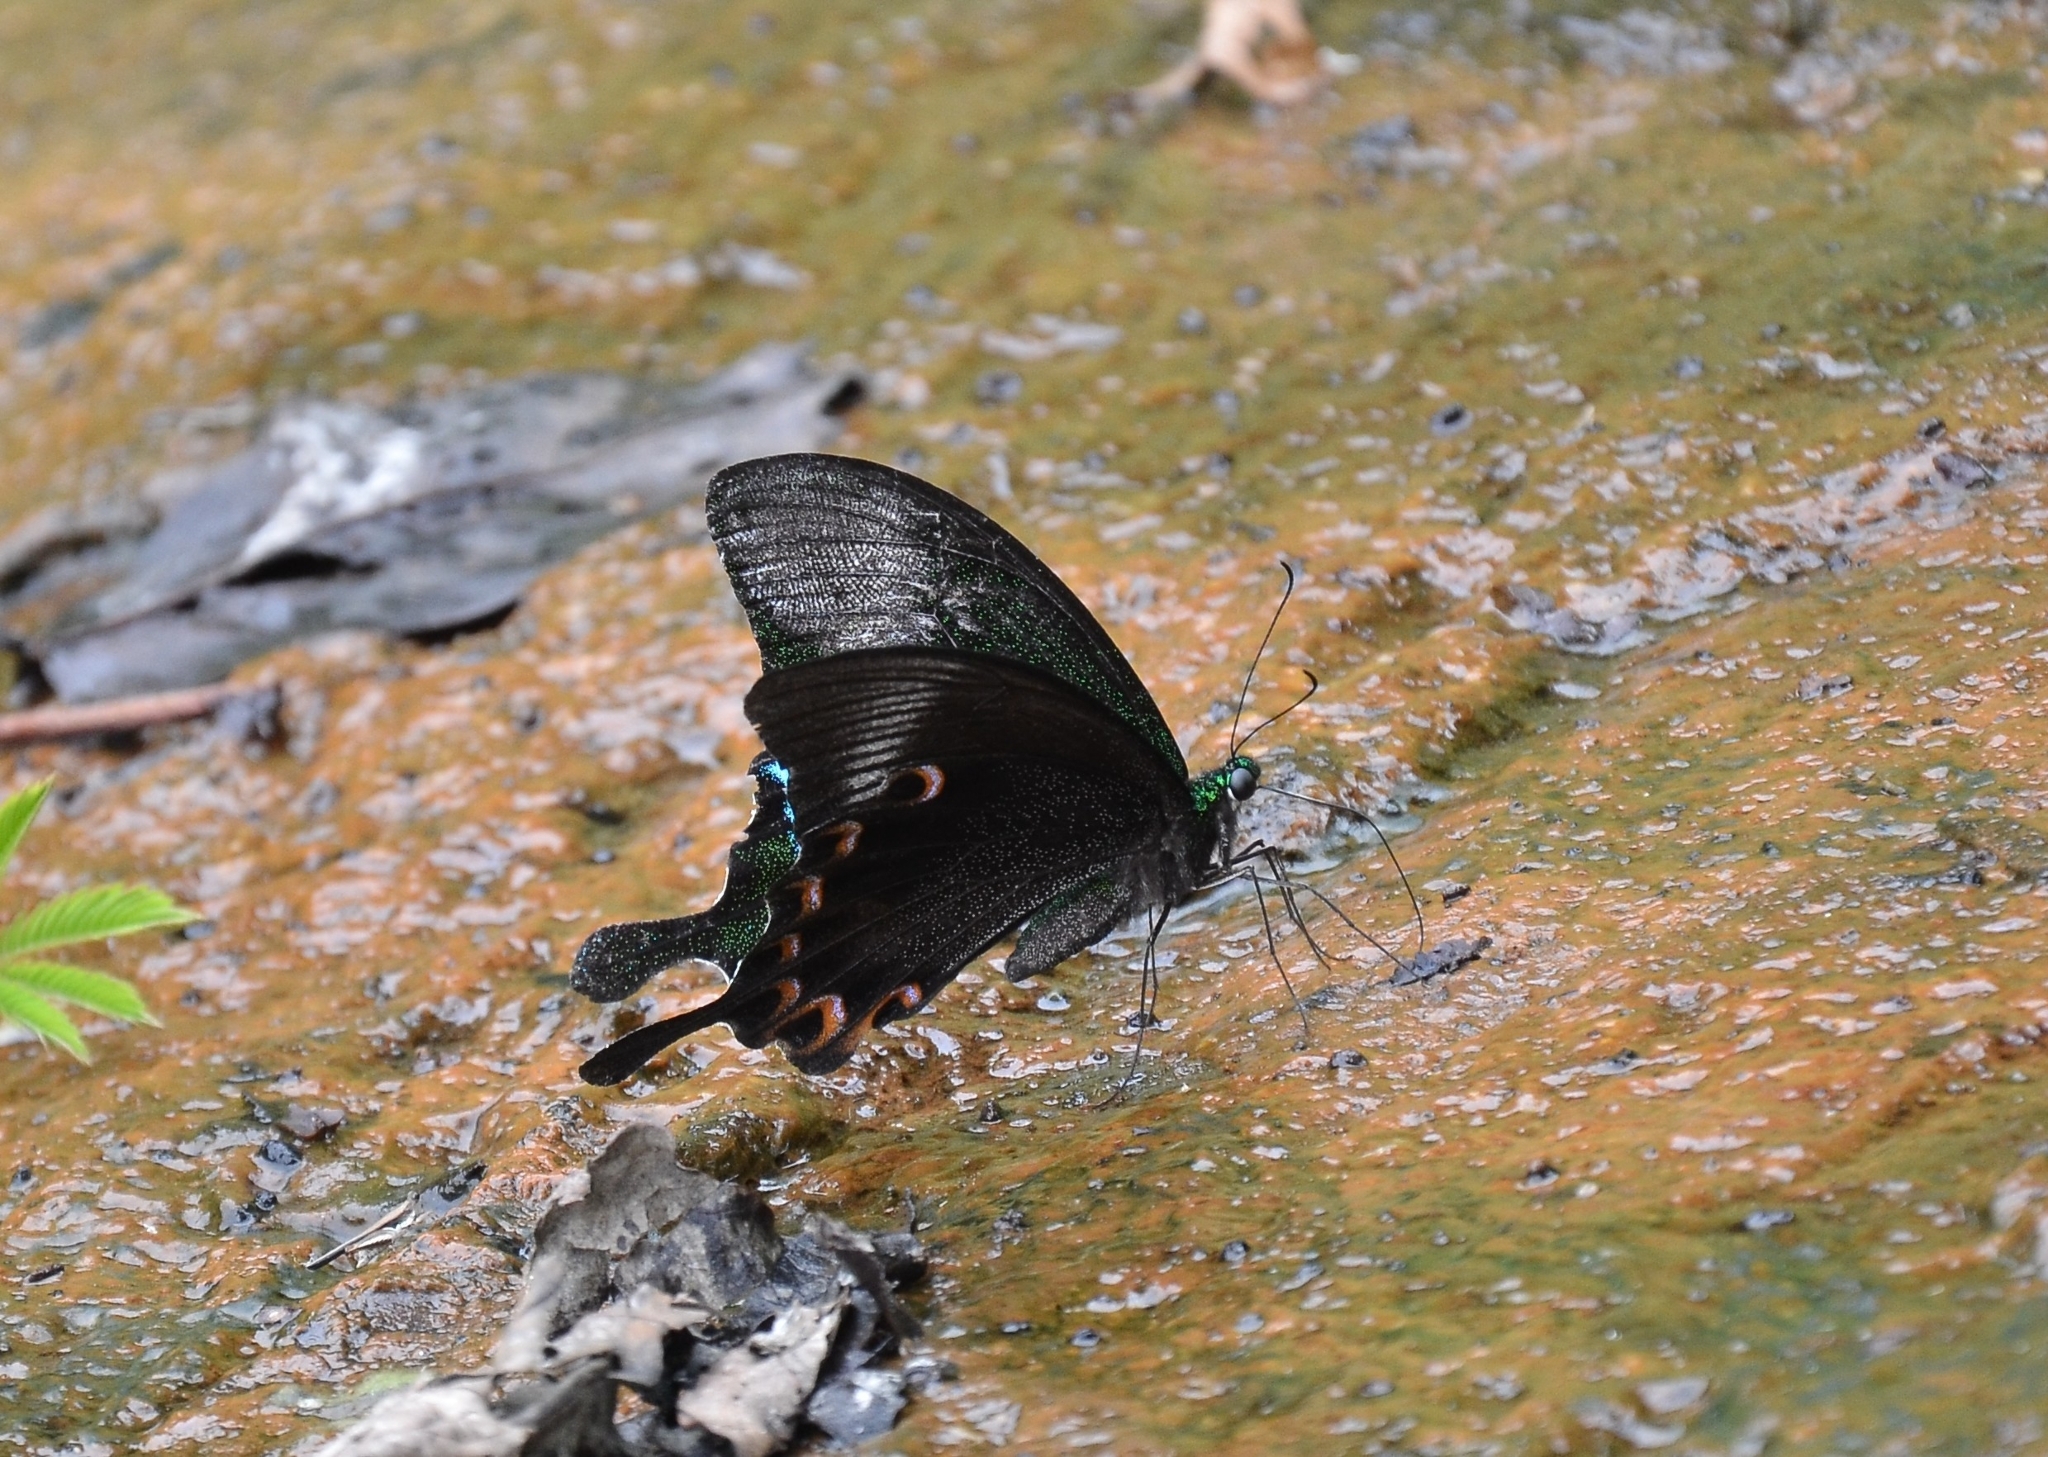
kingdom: Animalia
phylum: Arthropoda
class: Insecta
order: Lepidoptera
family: Papilionidae
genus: Papilio
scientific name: Papilio paris
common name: Paris peacock
